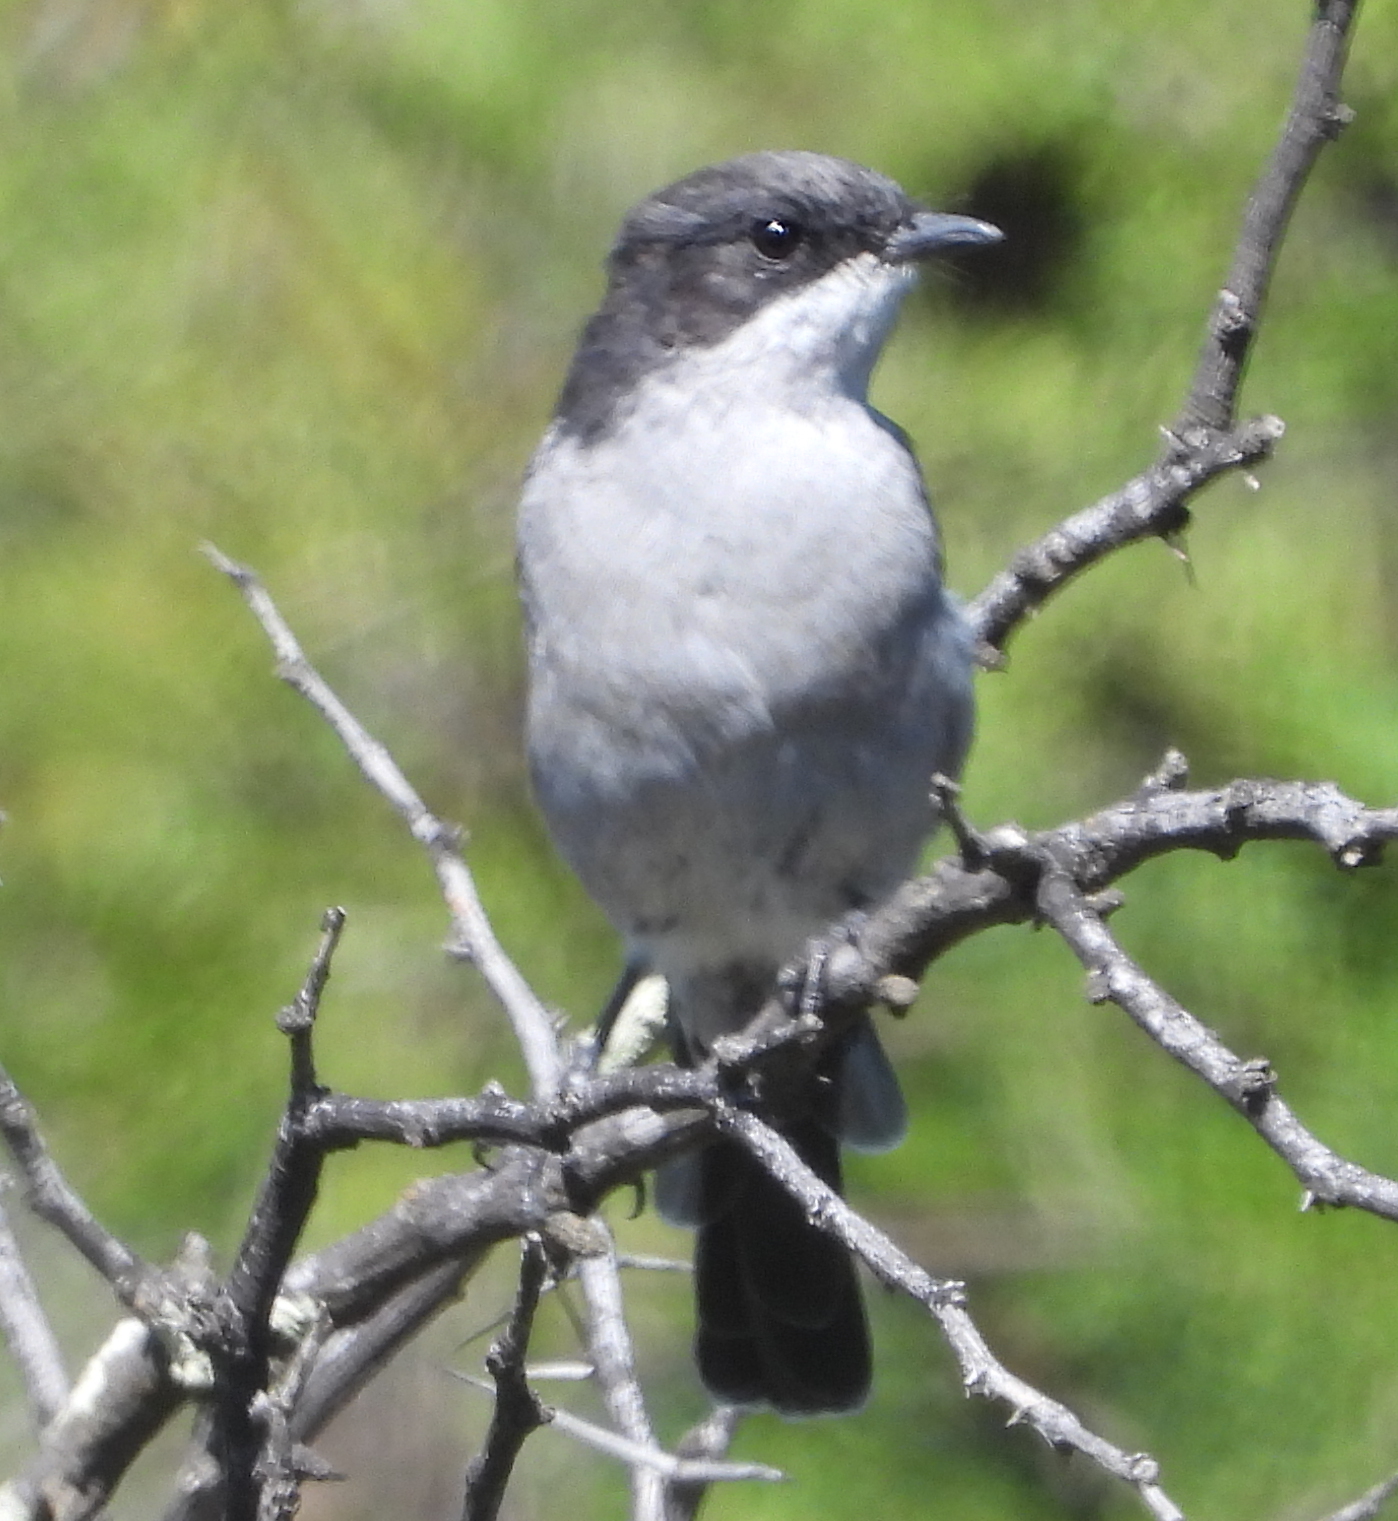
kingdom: Animalia
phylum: Chordata
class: Aves
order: Passeriformes
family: Muscicapidae
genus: Sigelus
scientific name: Sigelus silens
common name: Fiscal flycatcher
